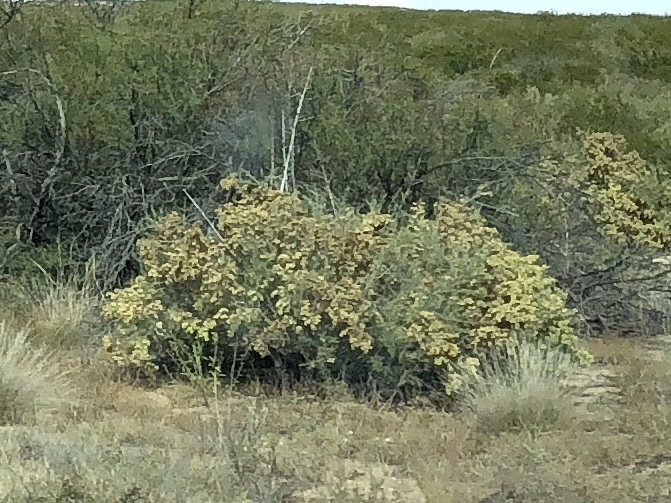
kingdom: Plantae
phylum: Tracheophyta
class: Magnoliopsida
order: Caryophyllales
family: Amaranthaceae
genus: Atriplex
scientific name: Atriplex canescens
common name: Four-wing saltbush
